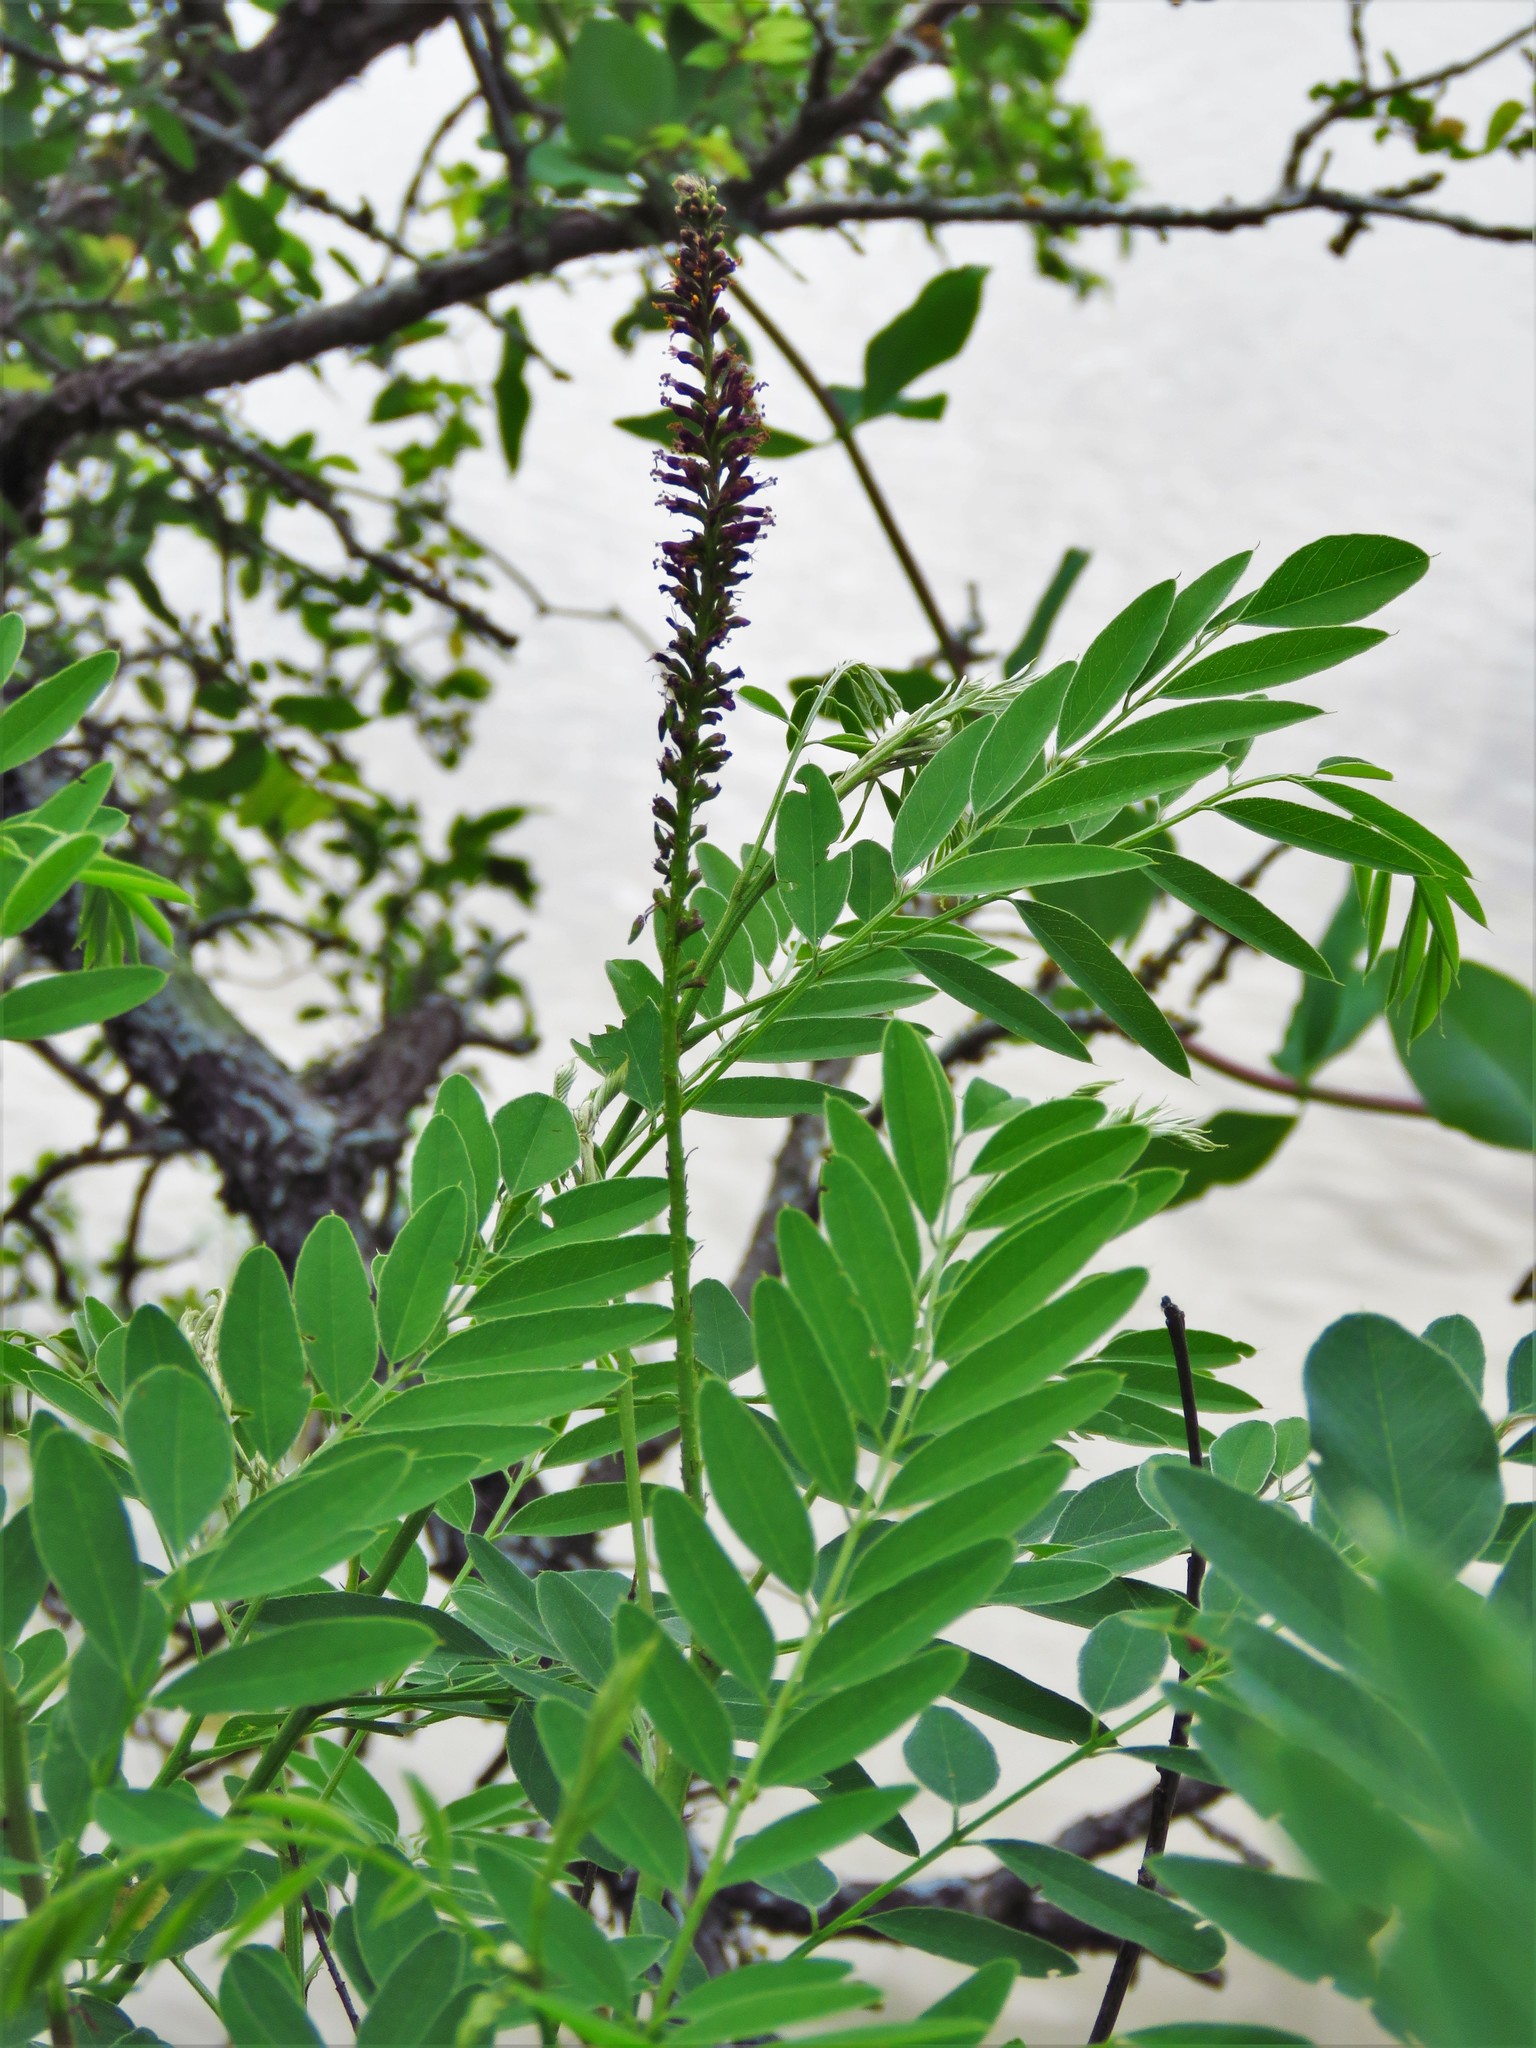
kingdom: Plantae
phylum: Tracheophyta
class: Magnoliopsida
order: Fabales
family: Fabaceae
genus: Amorpha
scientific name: Amorpha fruticosa
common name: False indigo
